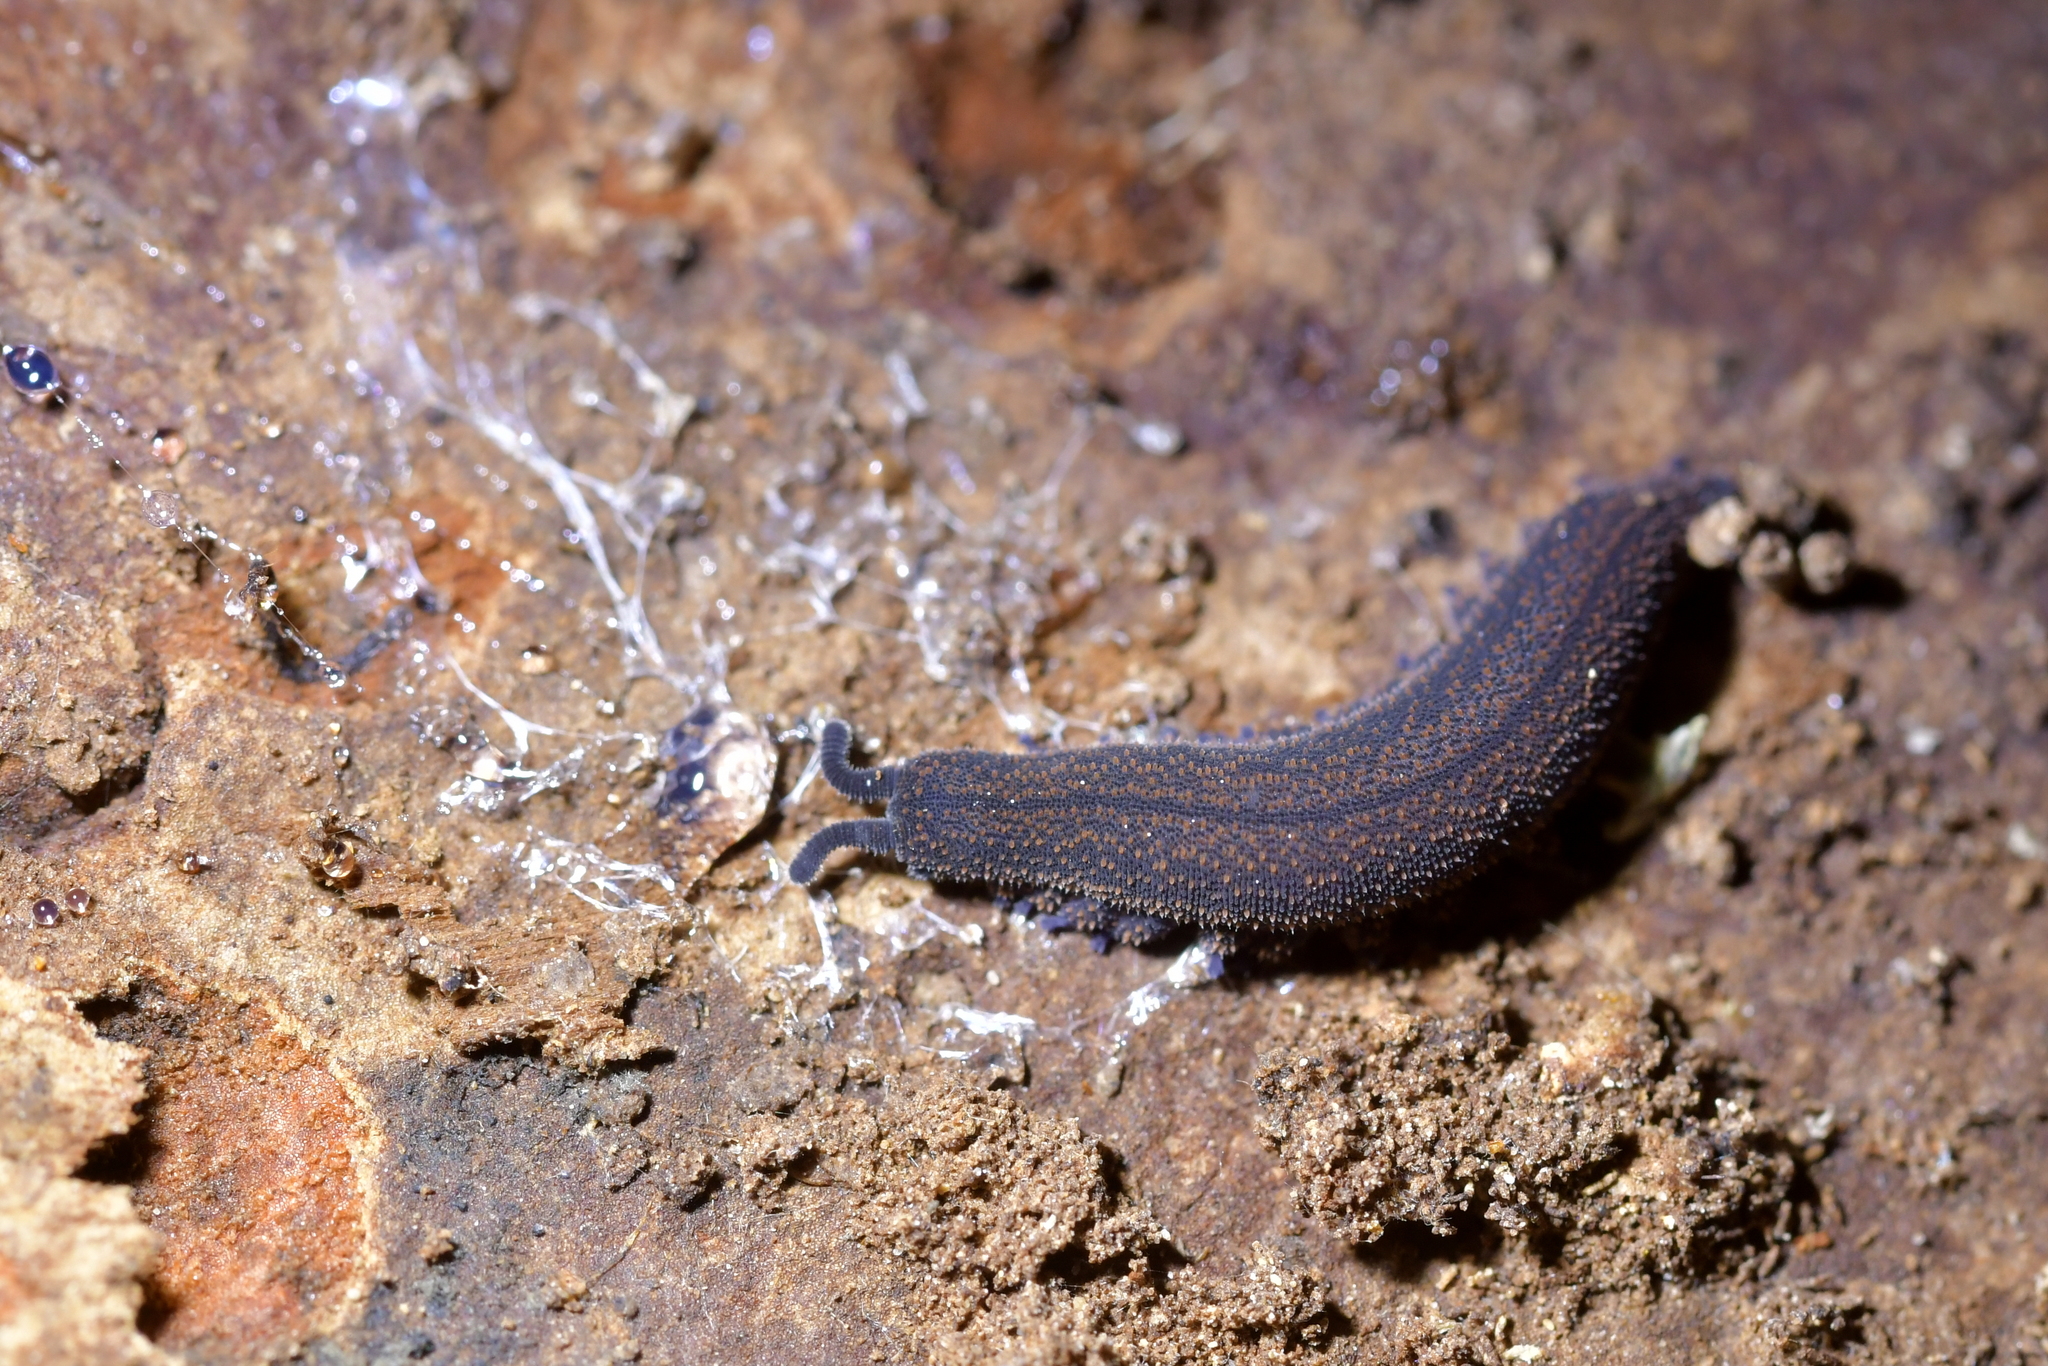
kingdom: Animalia
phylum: Onychophora
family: Peripatopsidae
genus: Peripatoides
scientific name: Peripatoides novaezealandiae
